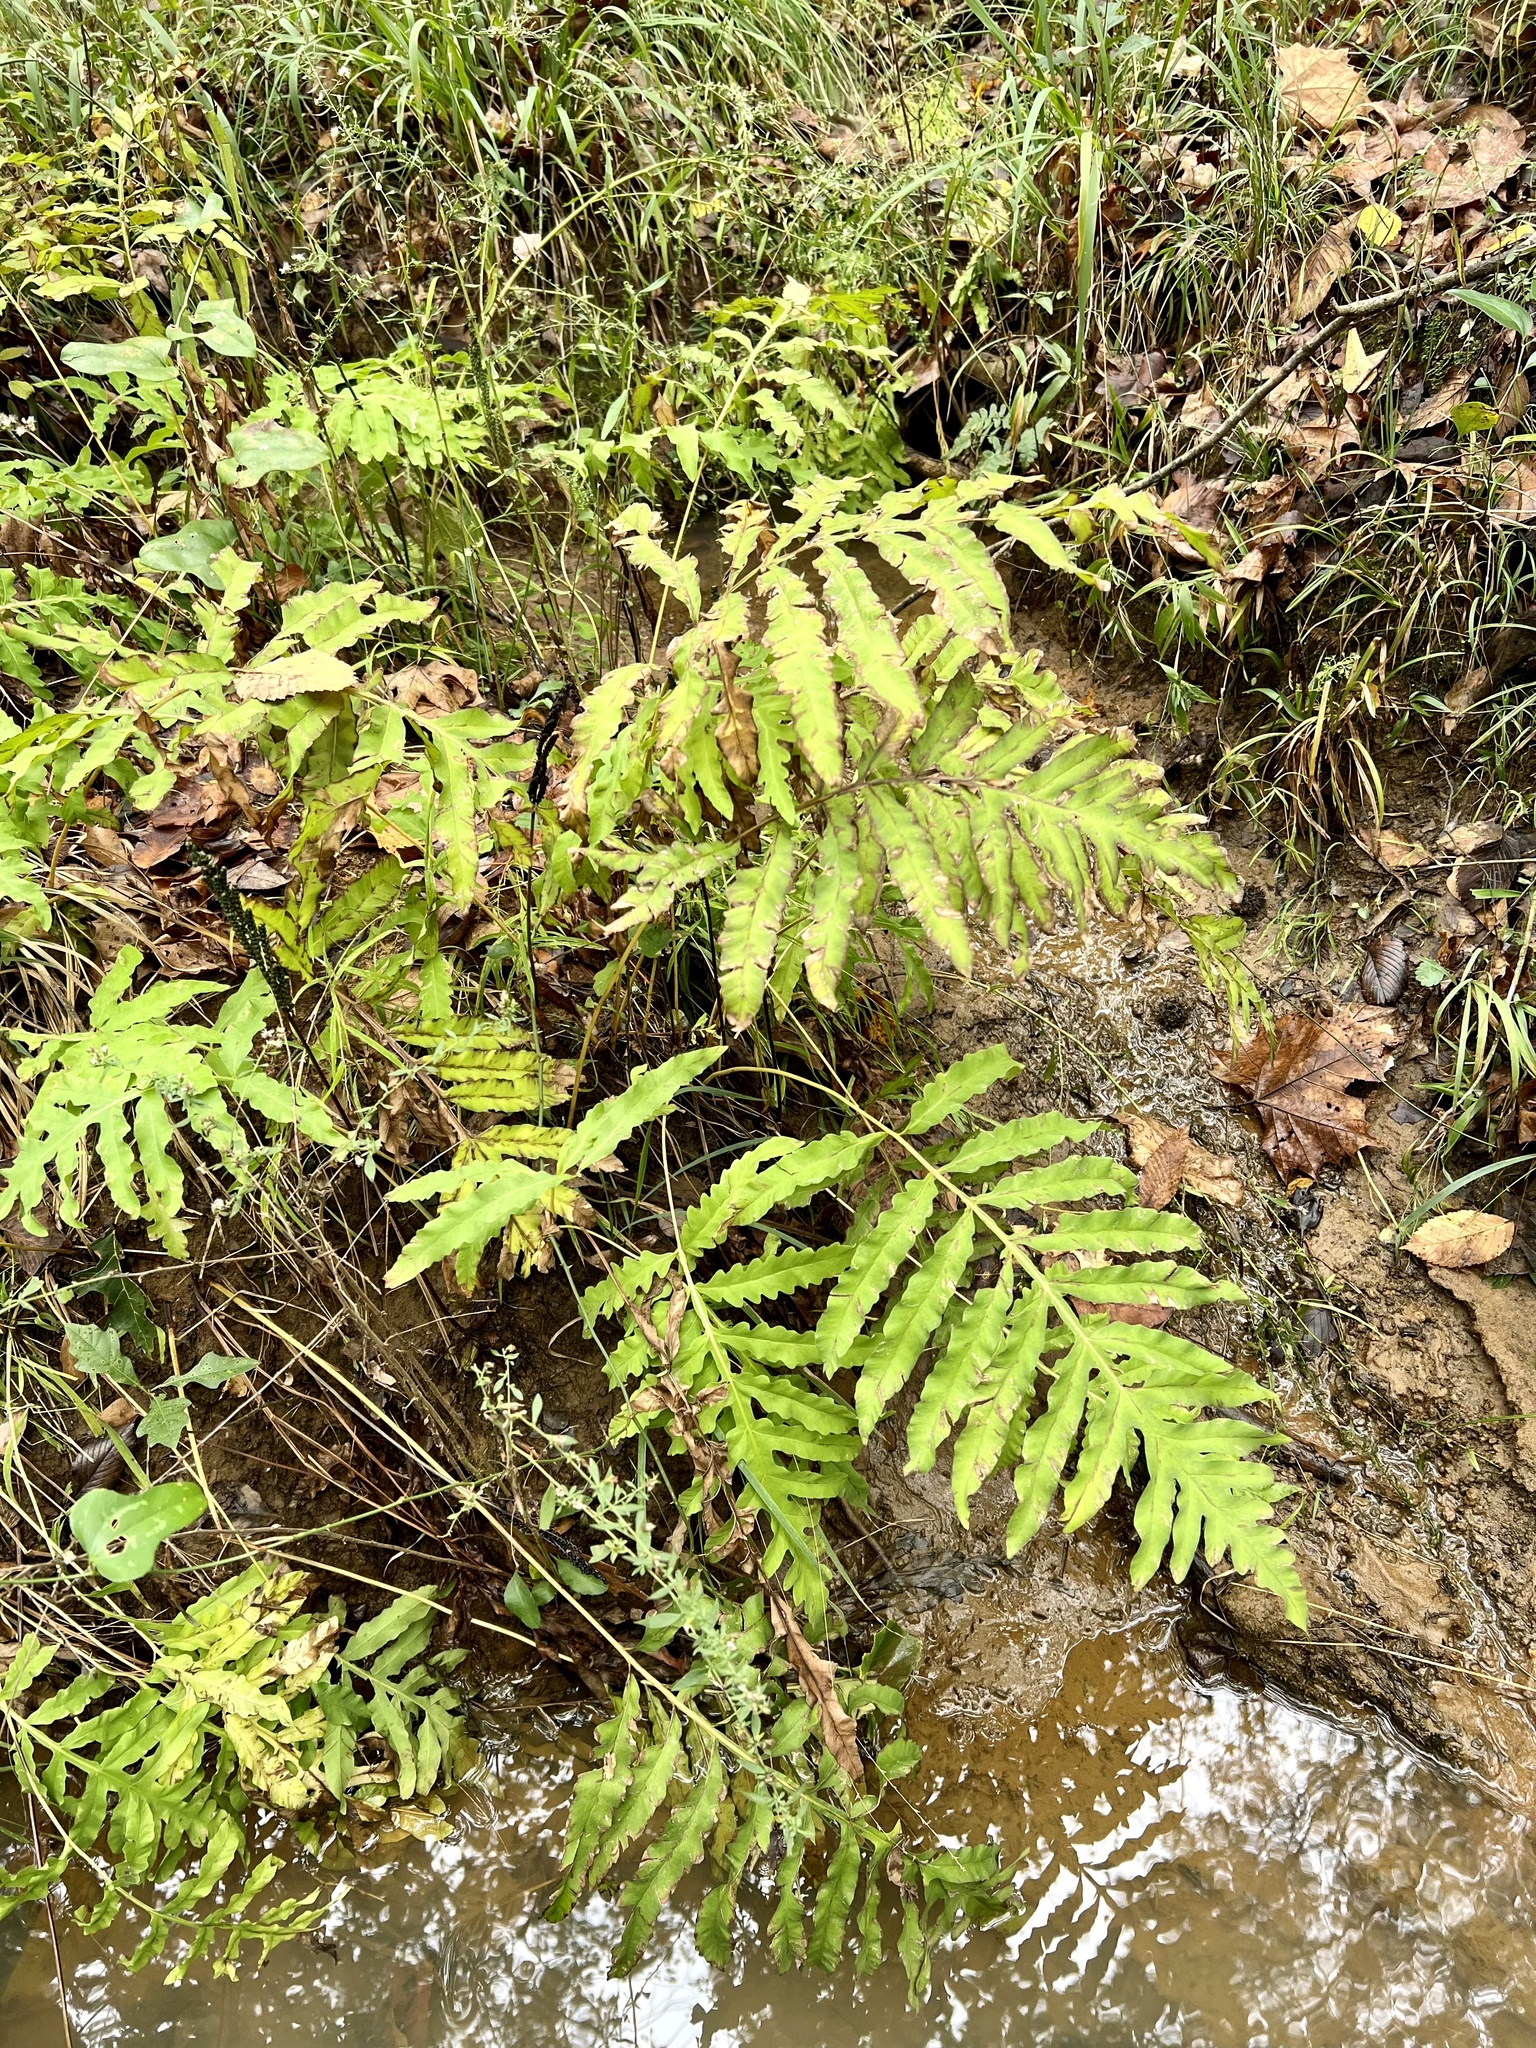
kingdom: Plantae
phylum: Tracheophyta
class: Polypodiopsida
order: Polypodiales
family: Onocleaceae
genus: Onoclea
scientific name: Onoclea sensibilis
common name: Sensitive fern
